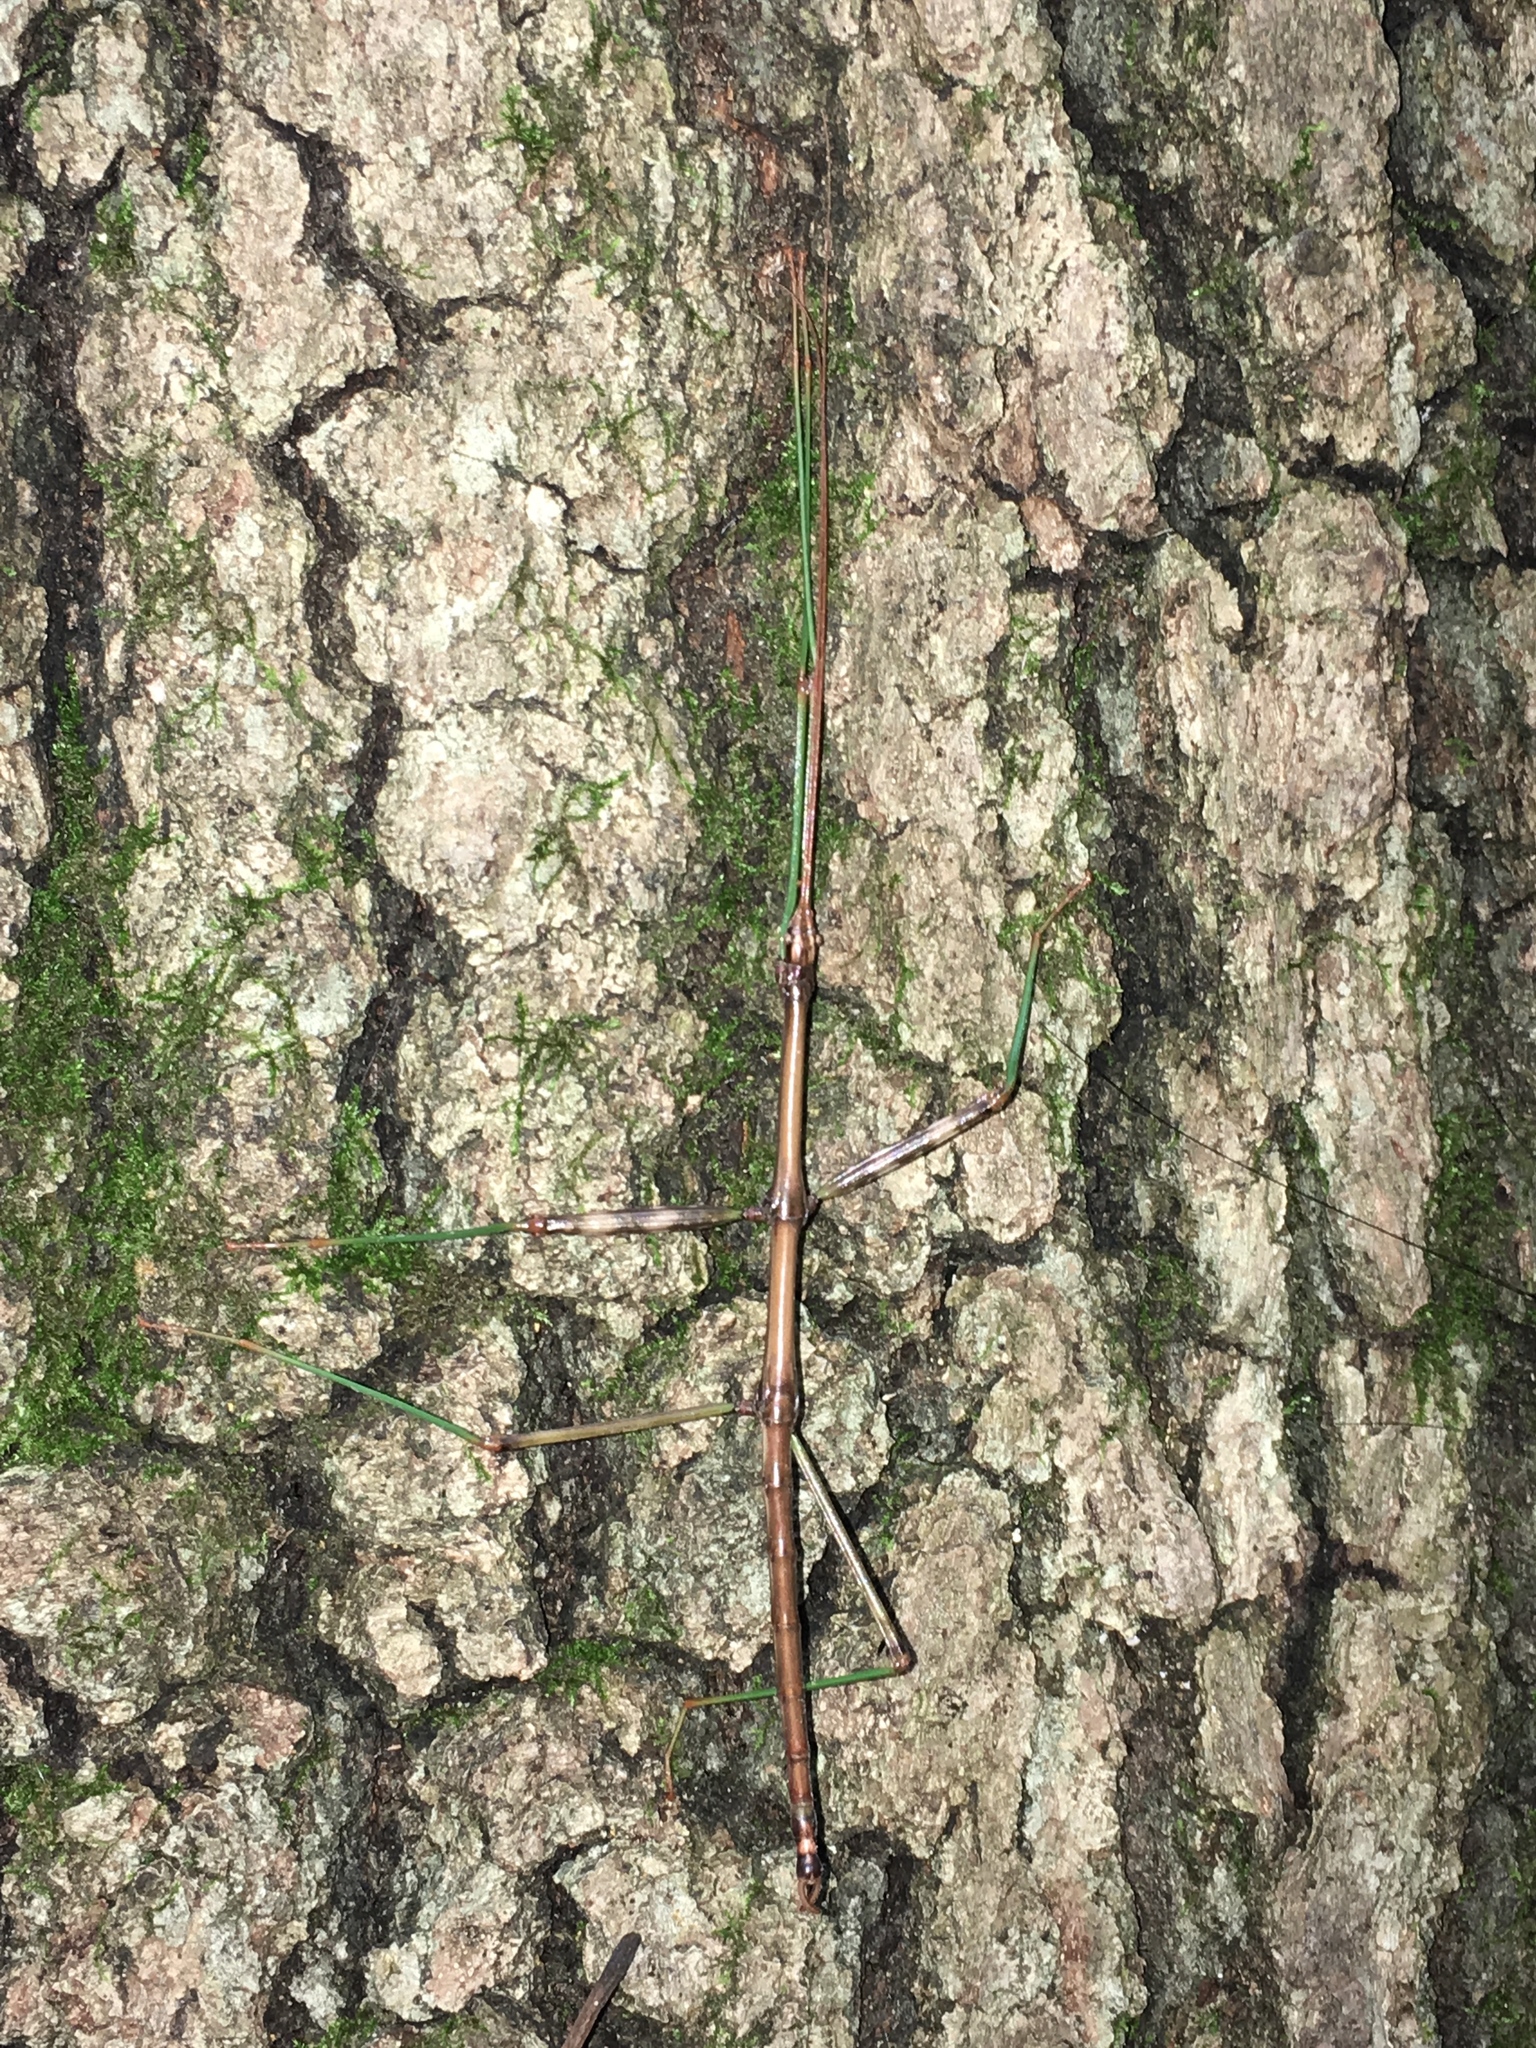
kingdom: Animalia
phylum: Arthropoda
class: Insecta
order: Phasmida
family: Diapheromeridae
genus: Diapheromera
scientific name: Diapheromera femorata
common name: Common american walkingstick
